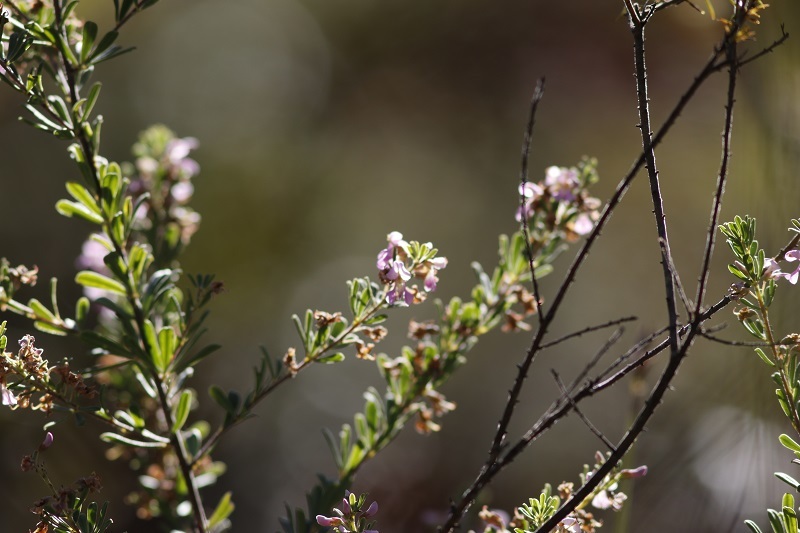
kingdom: Plantae
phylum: Tracheophyta
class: Magnoliopsida
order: Fabales
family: Fabaceae
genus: Indigofera
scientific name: Indigofera flabellata
